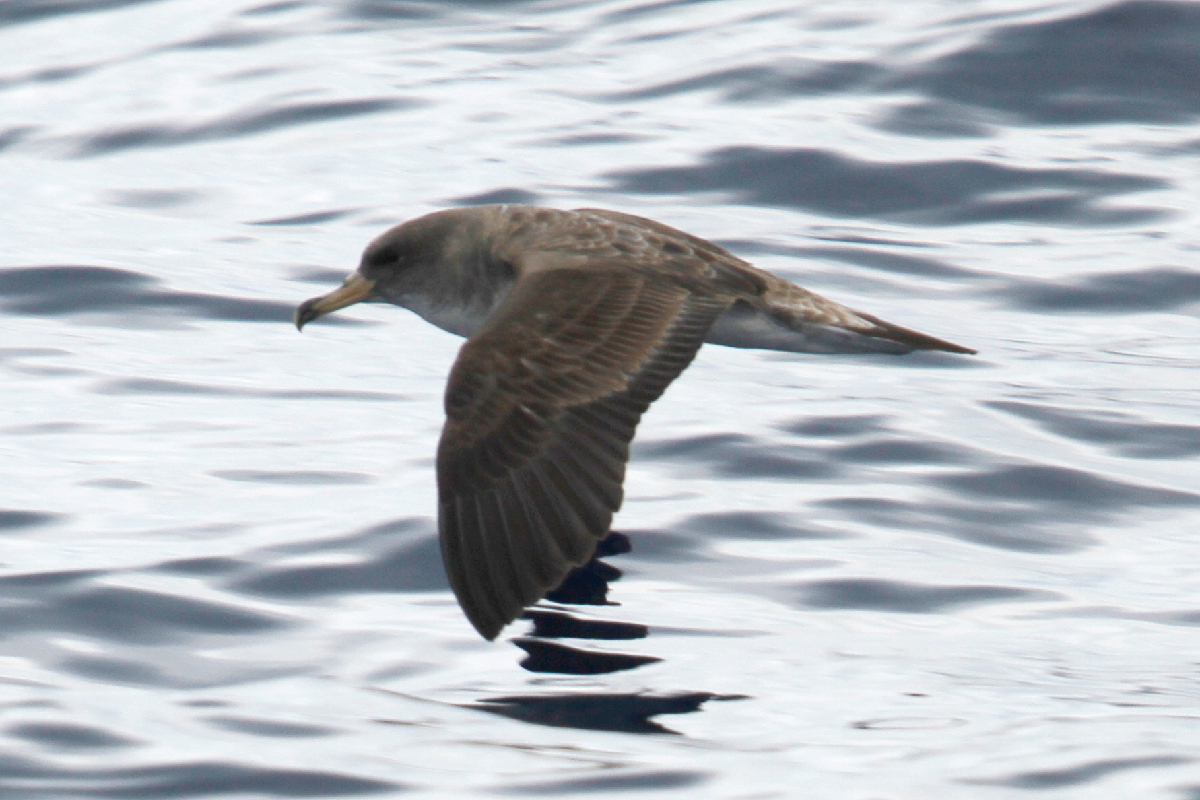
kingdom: Animalia
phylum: Chordata
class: Aves
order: Procellariiformes
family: Procellariidae
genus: Calonectris
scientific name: Calonectris diomedea
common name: Cory's shearwater
